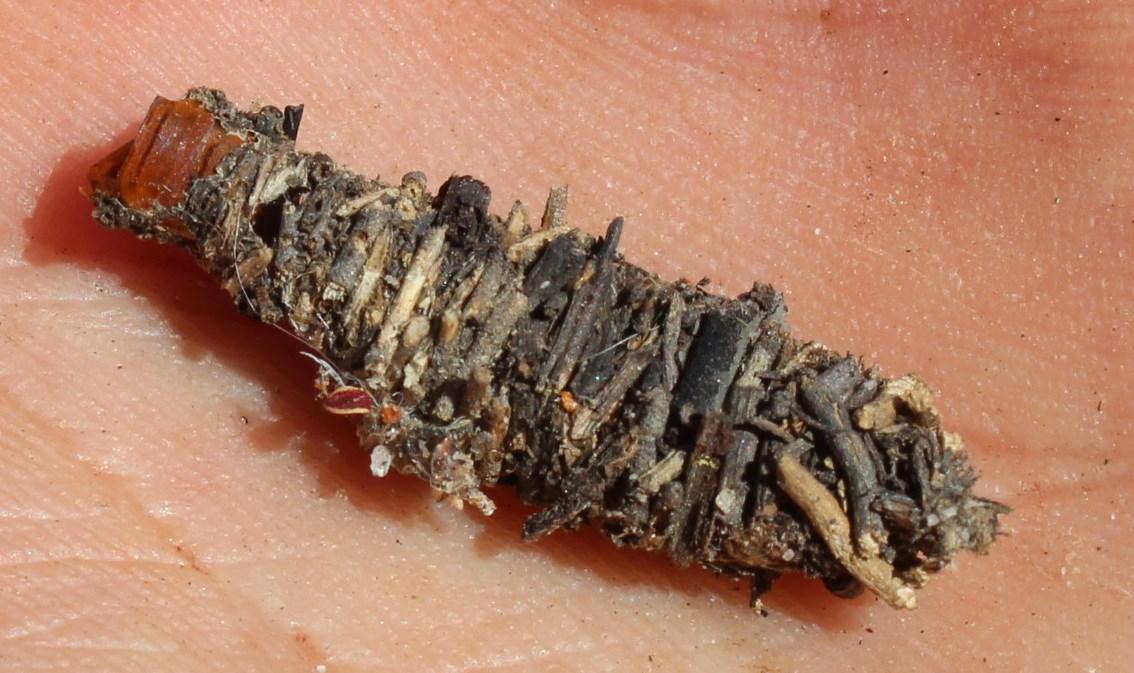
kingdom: Animalia
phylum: Arthropoda
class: Insecta
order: Lepidoptera
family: Psychidae
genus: Gymnelema
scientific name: Gymnelema vinctus
